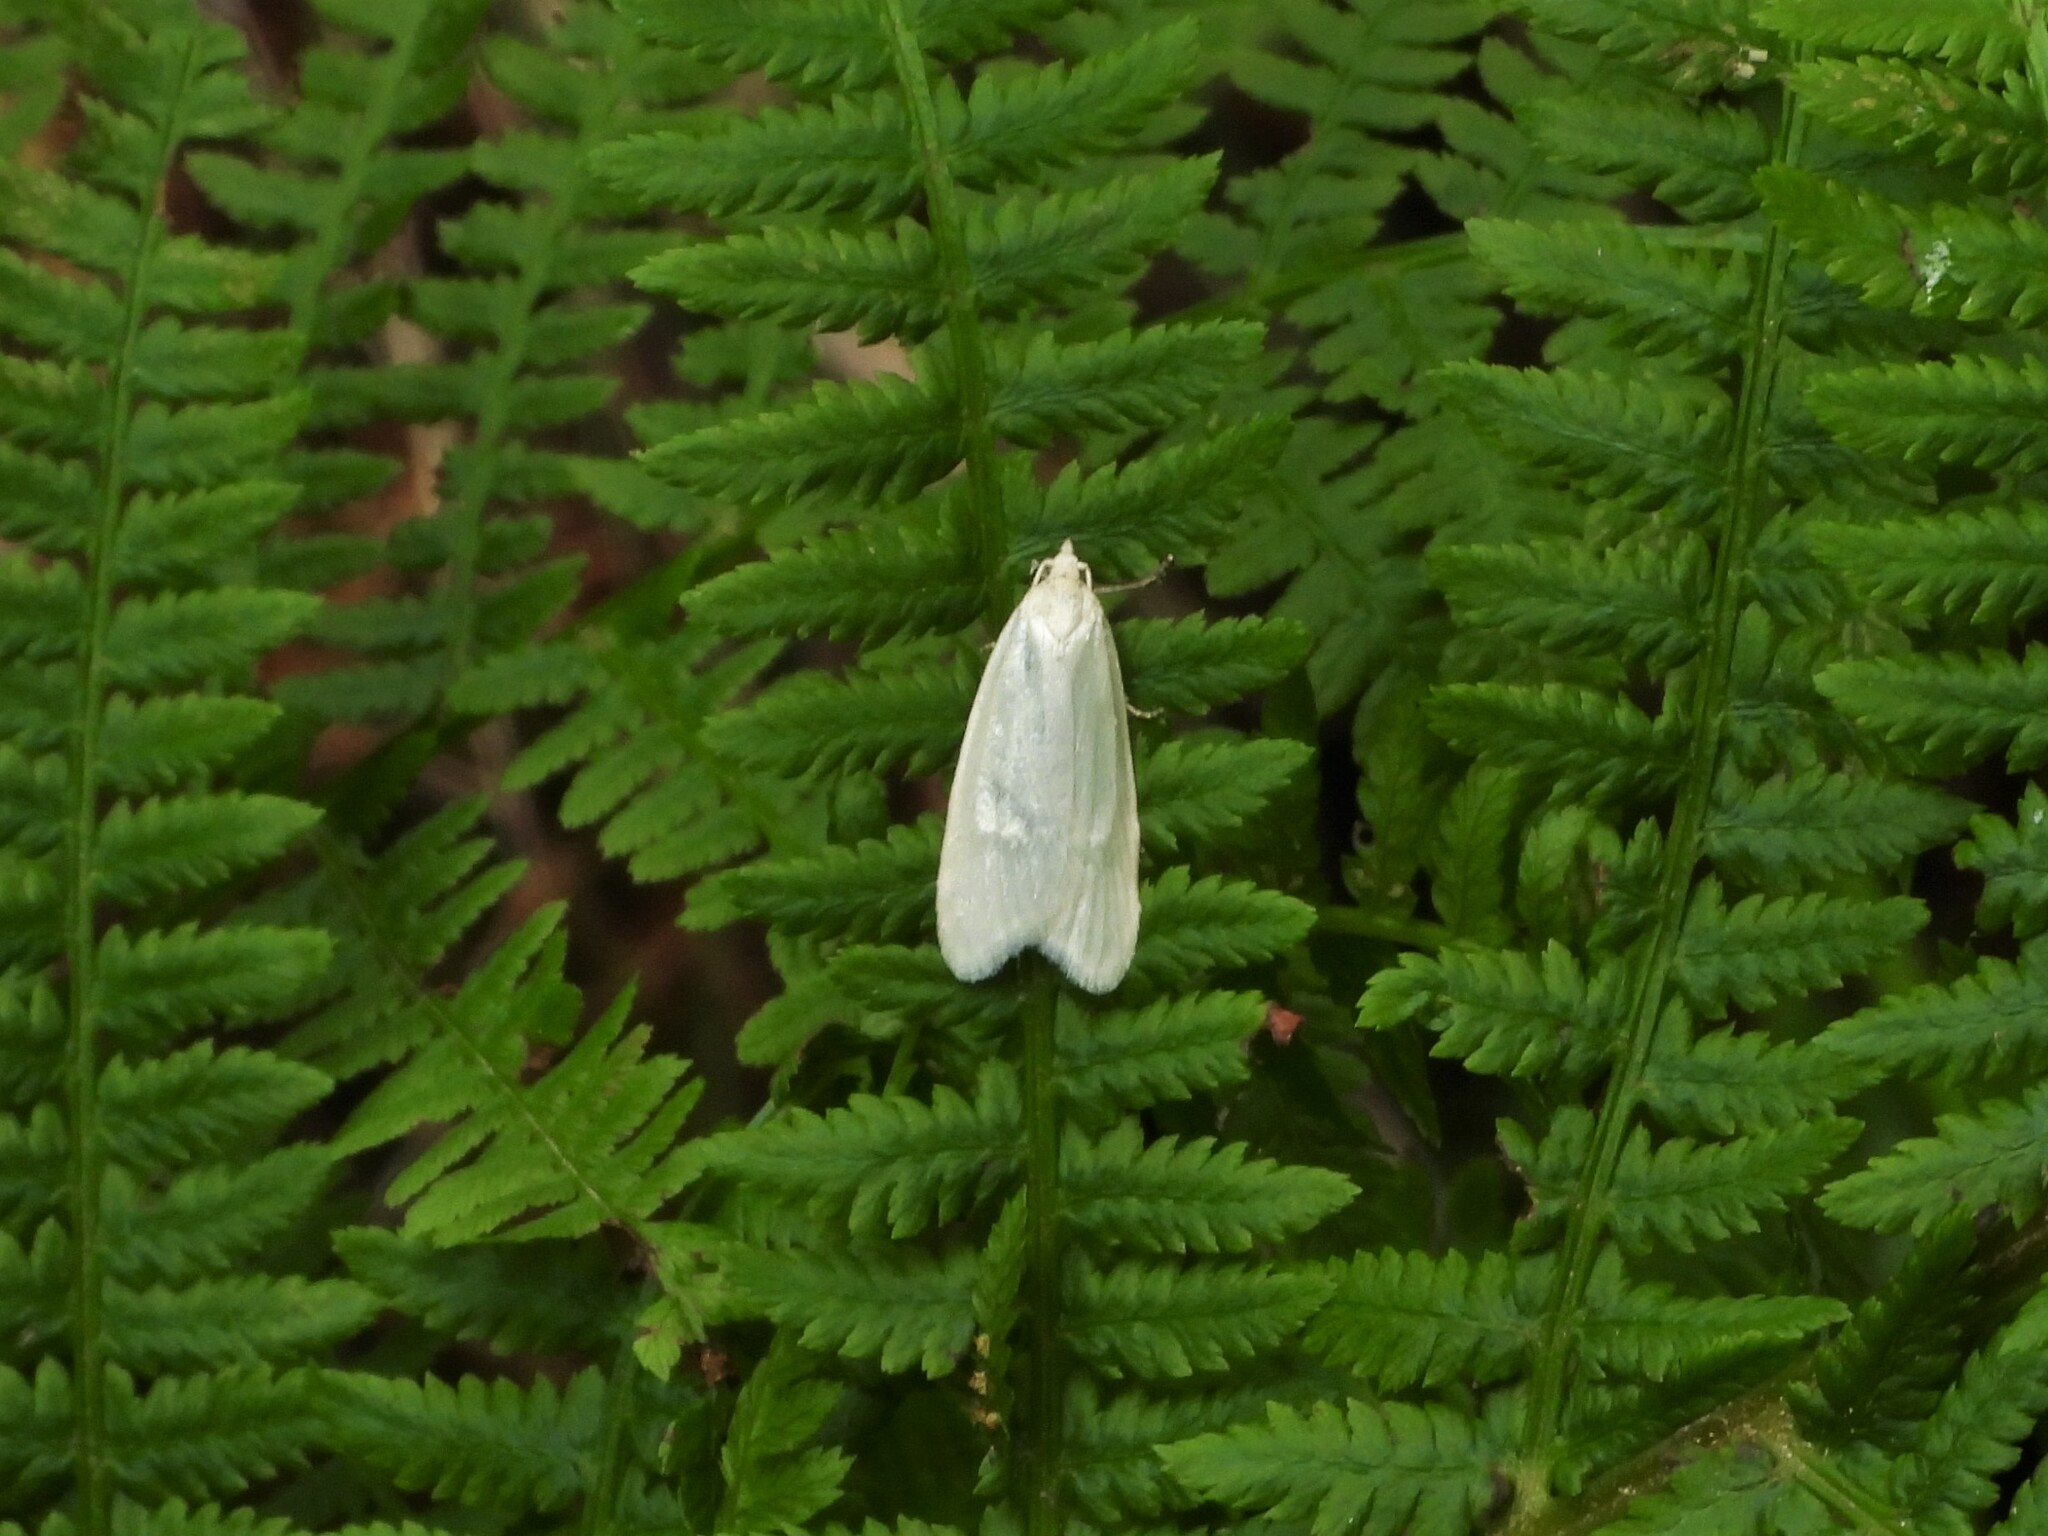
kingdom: Animalia
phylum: Arthropoda
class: Insecta
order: Lepidoptera
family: Tortricidae
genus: Eana
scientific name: Eana argentana
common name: Silver shade
